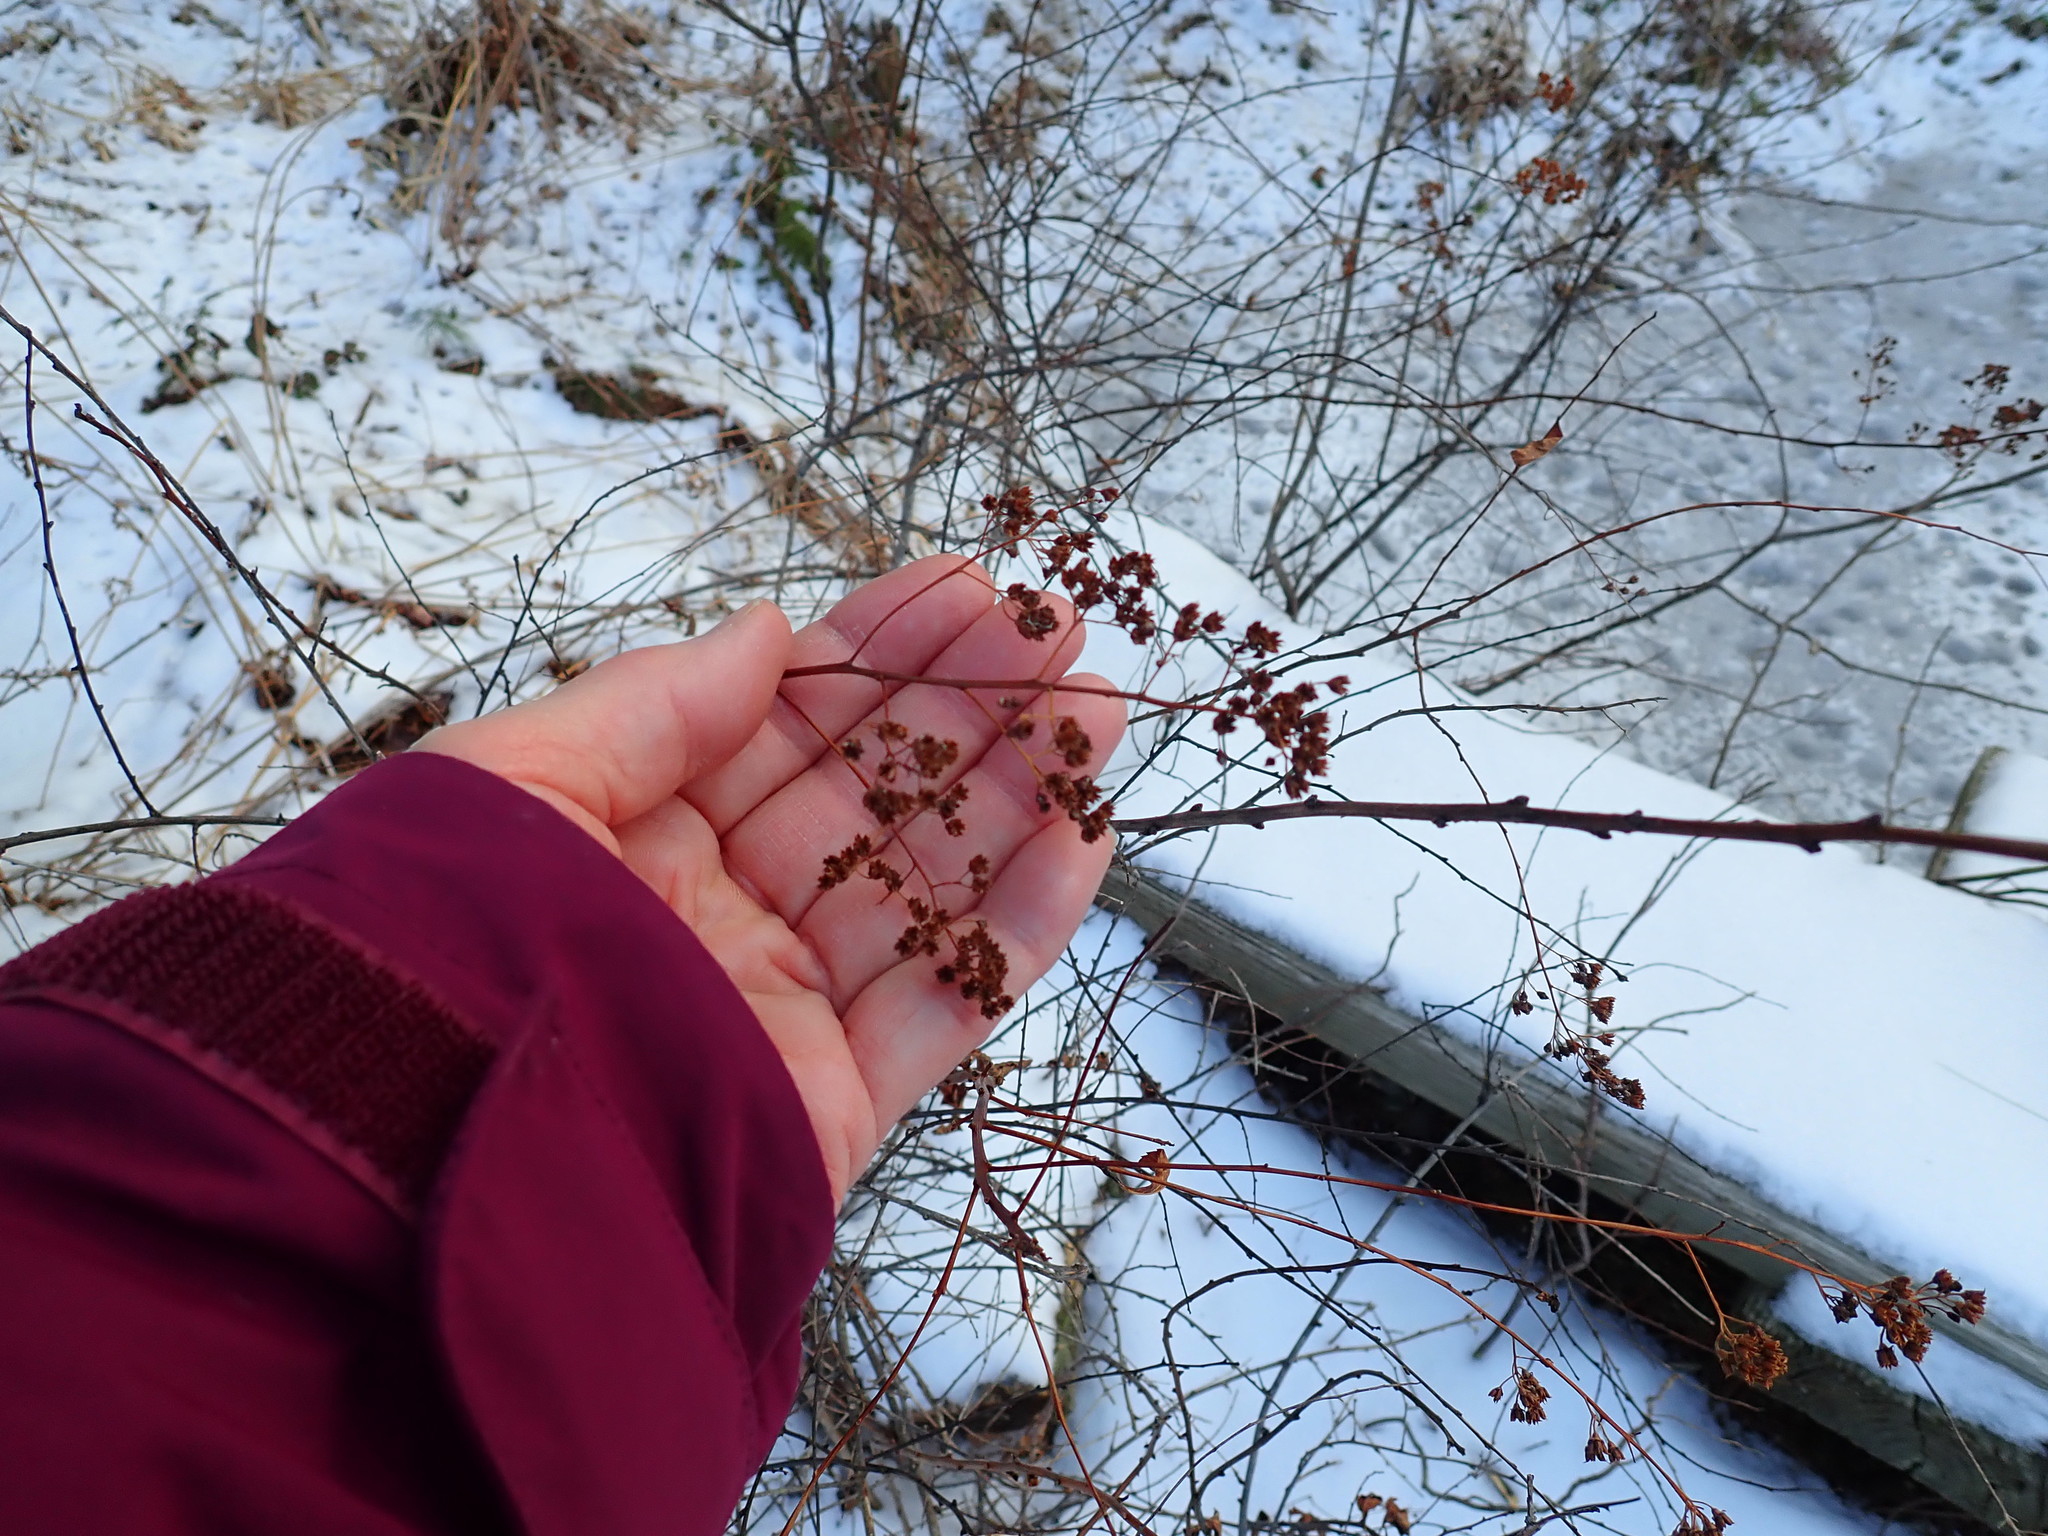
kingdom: Plantae
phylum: Tracheophyta
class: Magnoliopsida
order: Rosales
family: Rosaceae
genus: Spiraea
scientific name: Spiraea alba
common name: Pale bridewort
